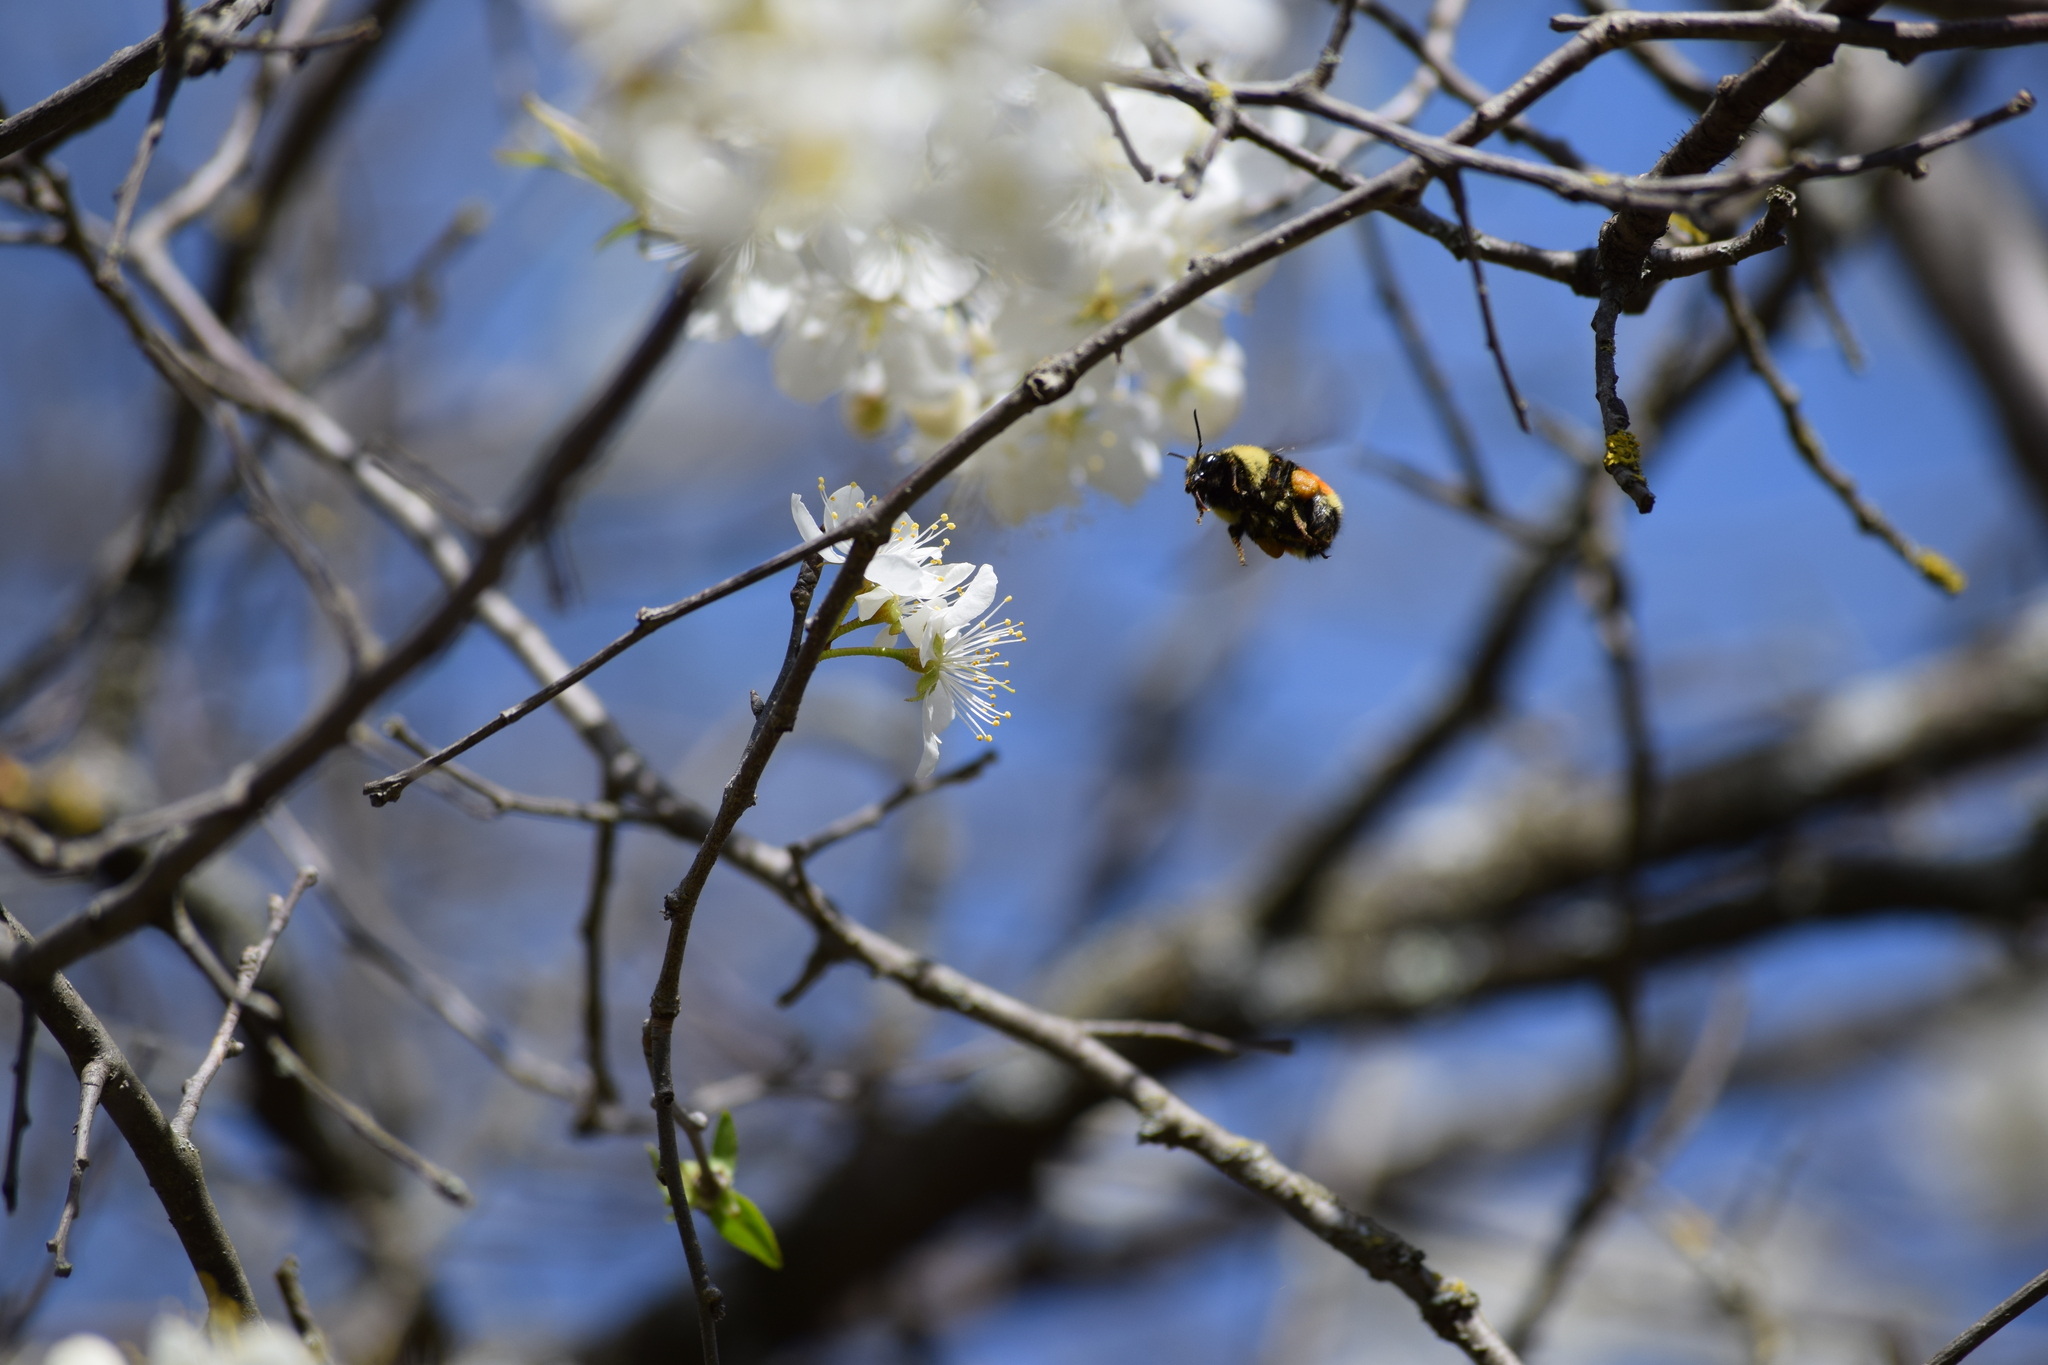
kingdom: Animalia
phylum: Arthropoda
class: Insecta
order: Hymenoptera
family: Apidae
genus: Bombus
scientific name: Bombus ternarius
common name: Tri-colored bumble bee
